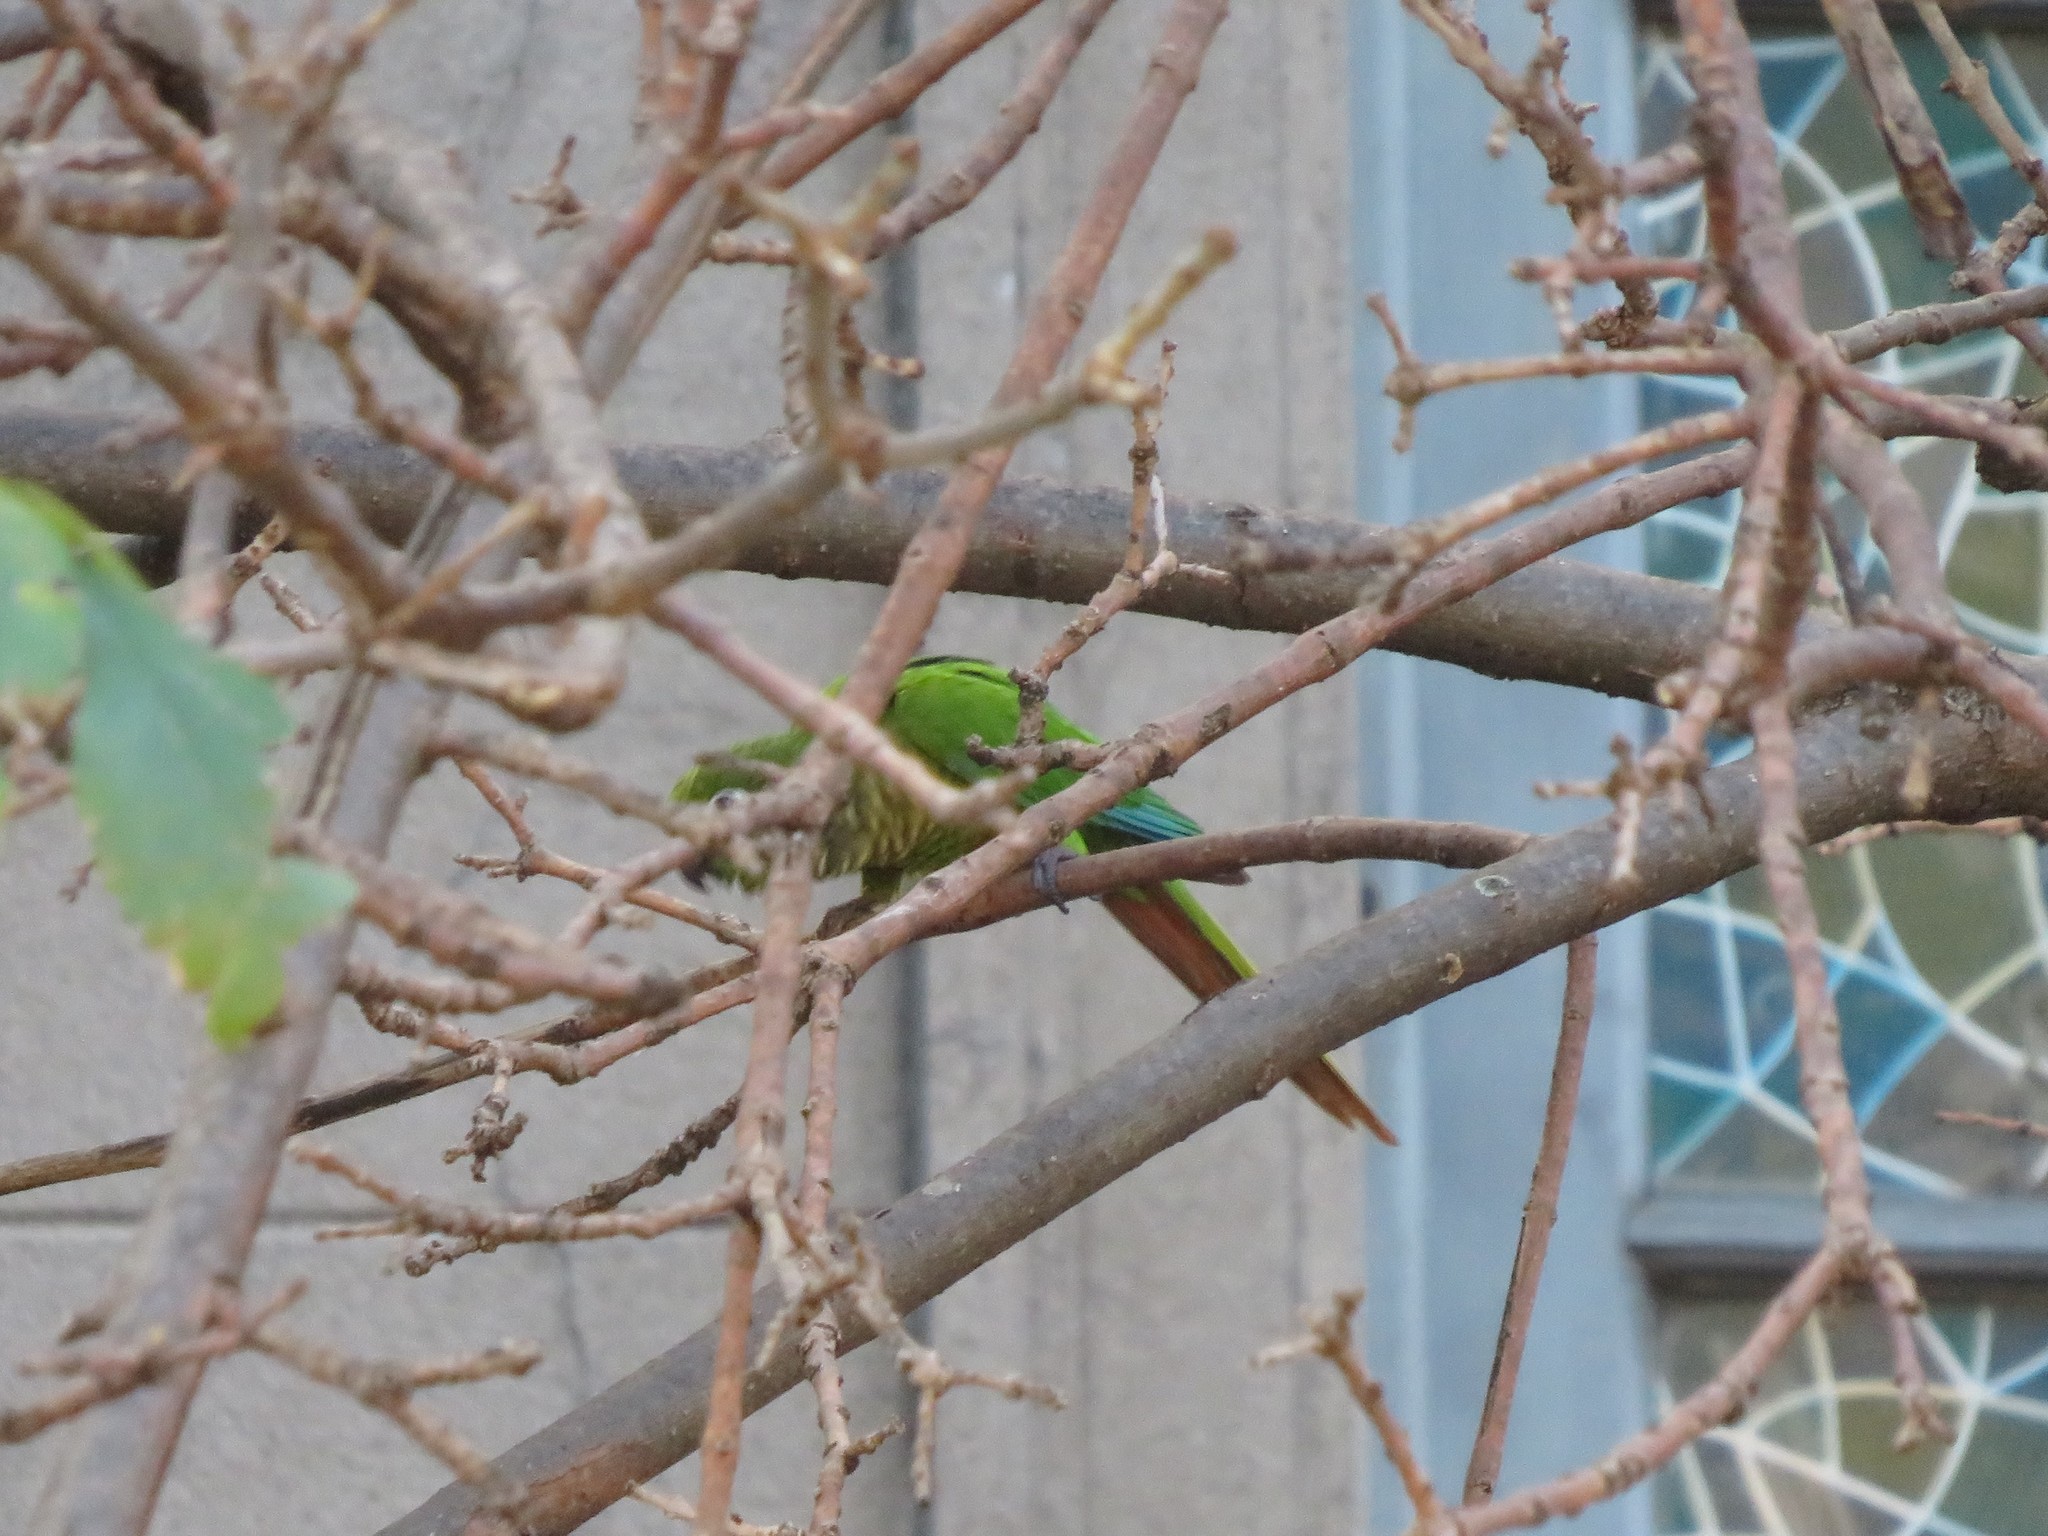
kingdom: Animalia
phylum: Chordata
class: Aves
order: Psittaciformes
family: Psittacidae
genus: Pyrrhura
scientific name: Pyrrhura frontalis
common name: Maroon-bellied parakeet
